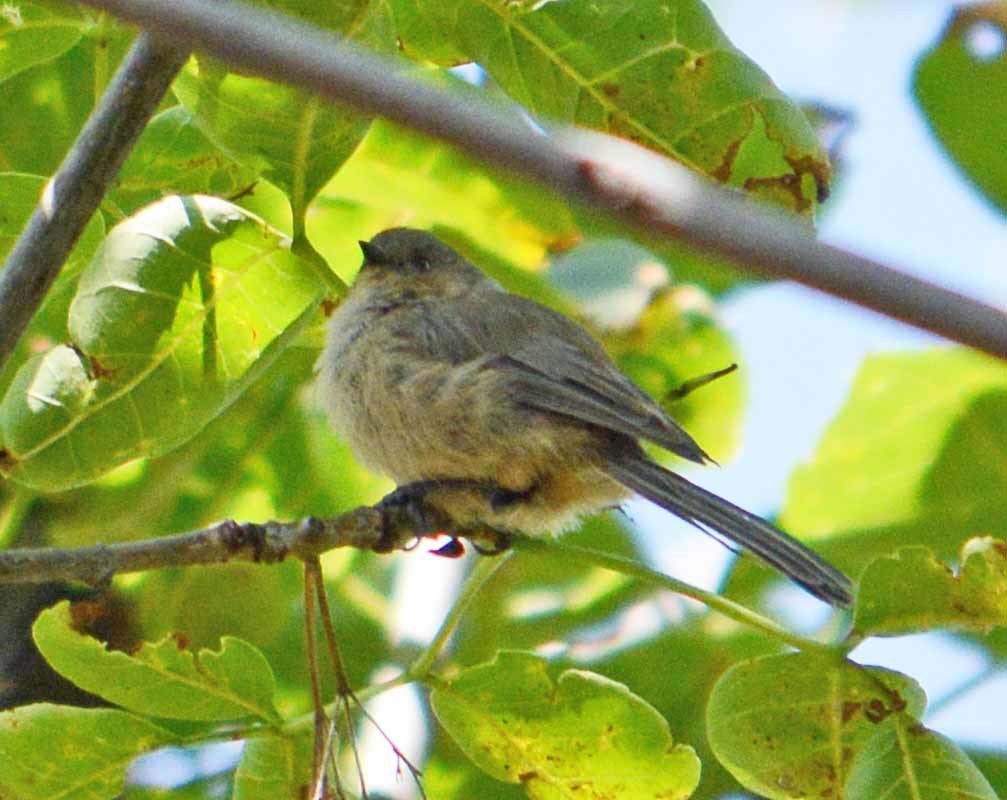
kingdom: Animalia
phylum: Chordata
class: Aves
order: Passeriformes
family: Aegithalidae
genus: Psaltriparus
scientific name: Psaltriparus minimus
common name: American bushtit
